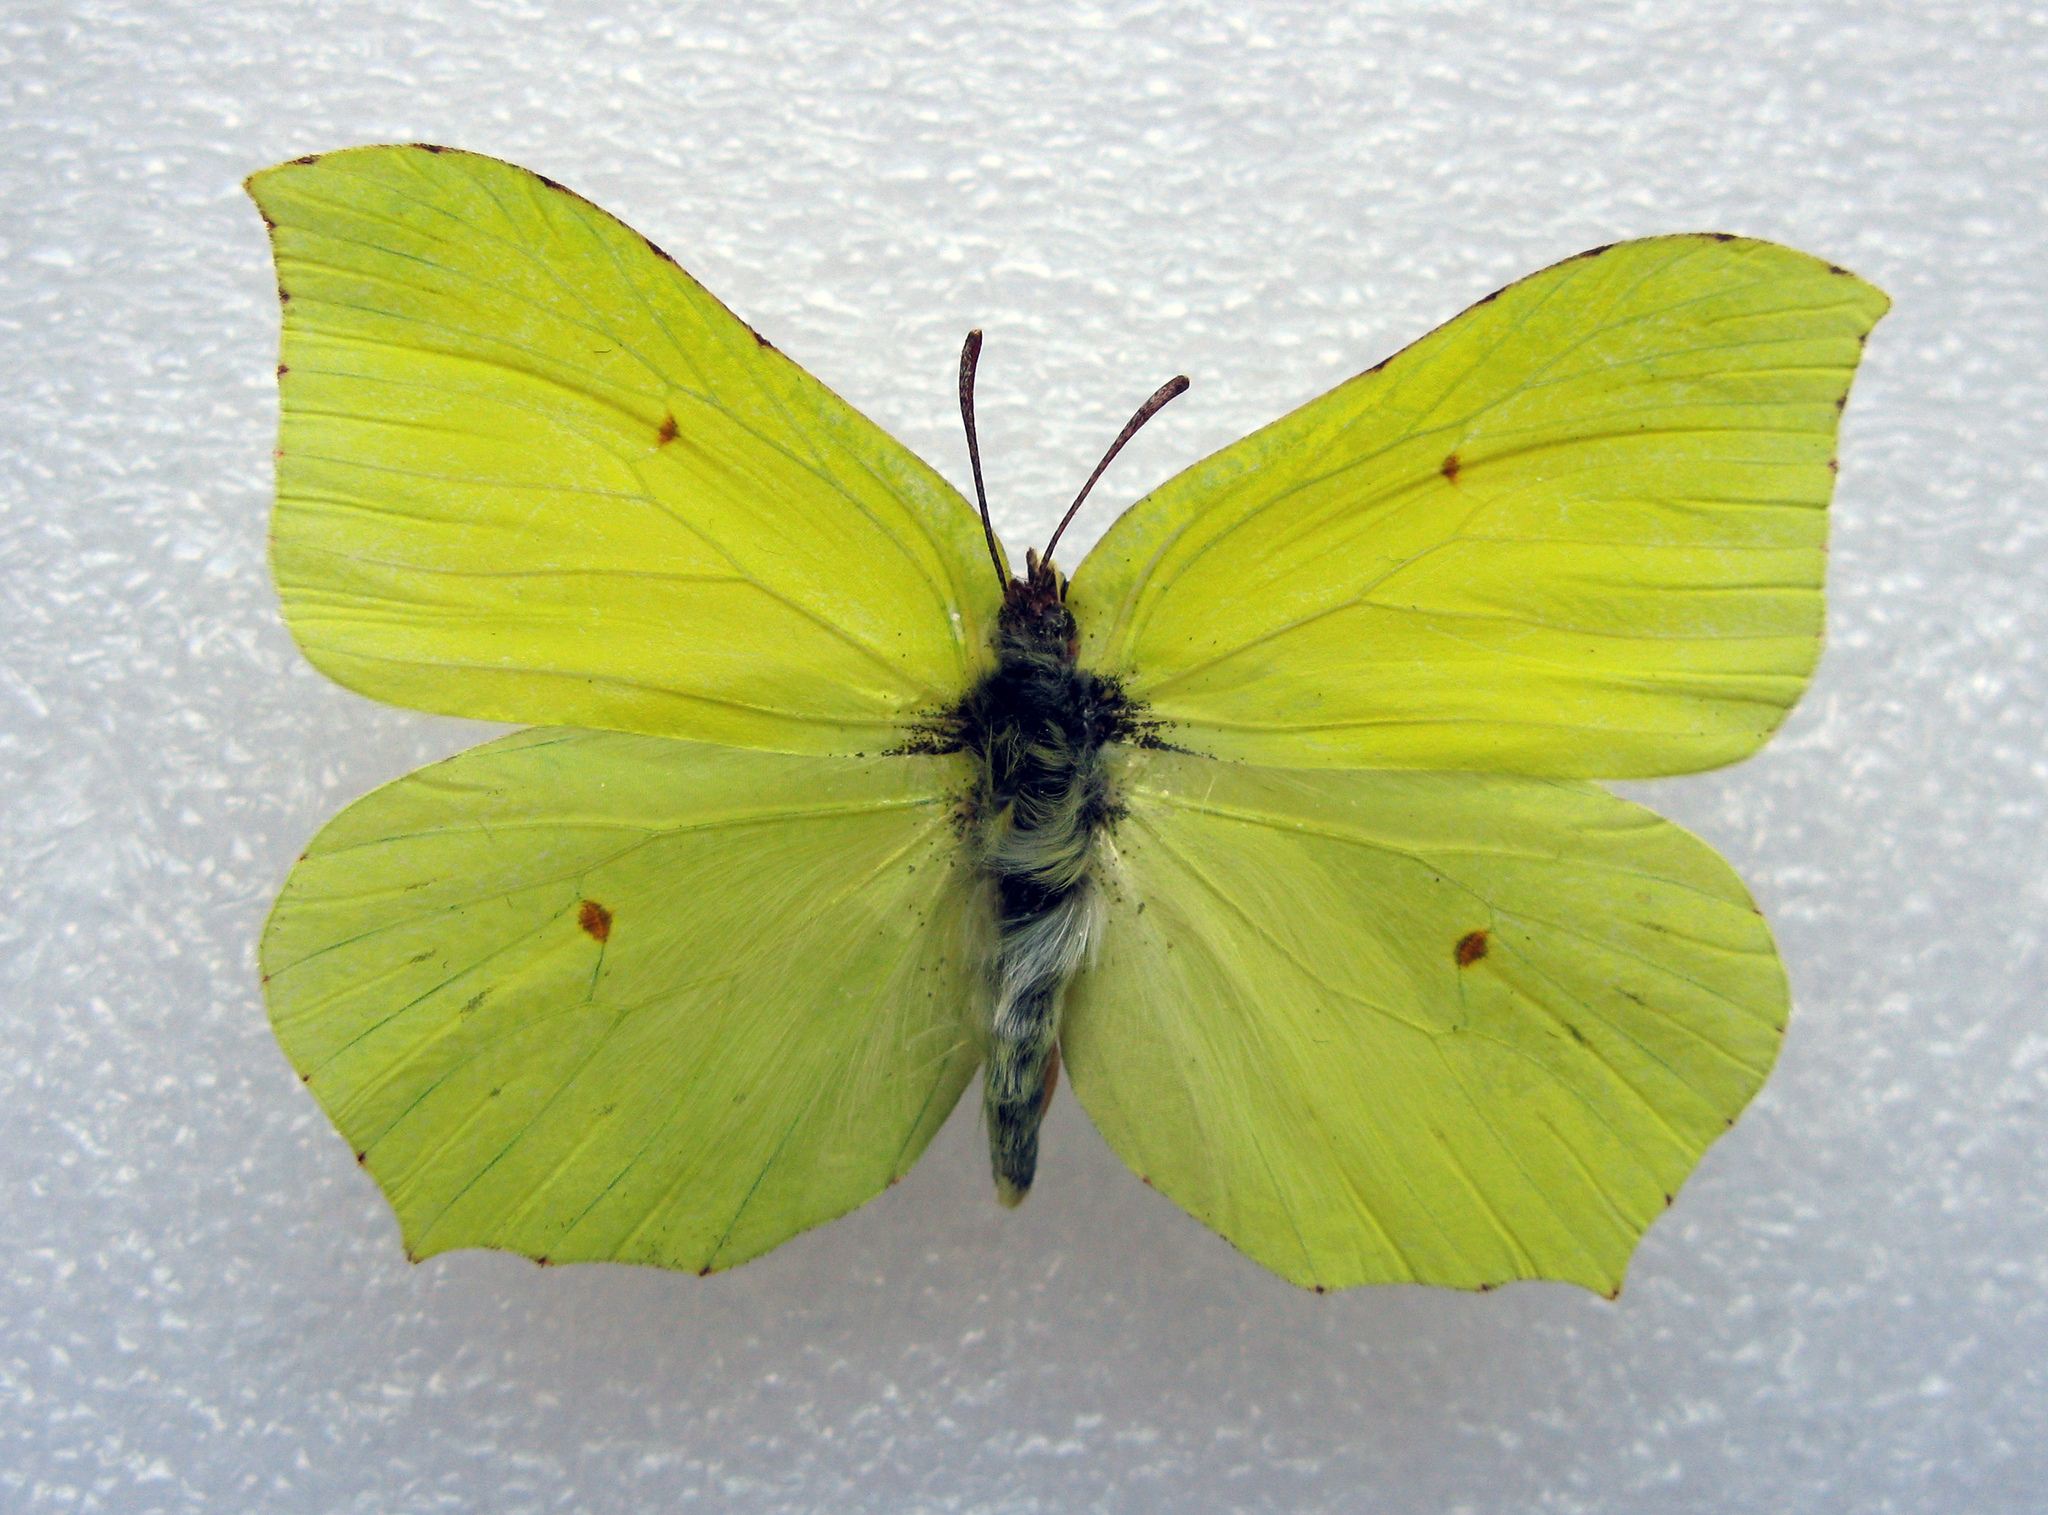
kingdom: Animalia
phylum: Arthropoda
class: Insecta
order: Lepidoptera
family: Pieridae
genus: Gonepteryx
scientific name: Gonepteryx rhamni
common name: Brimstone
